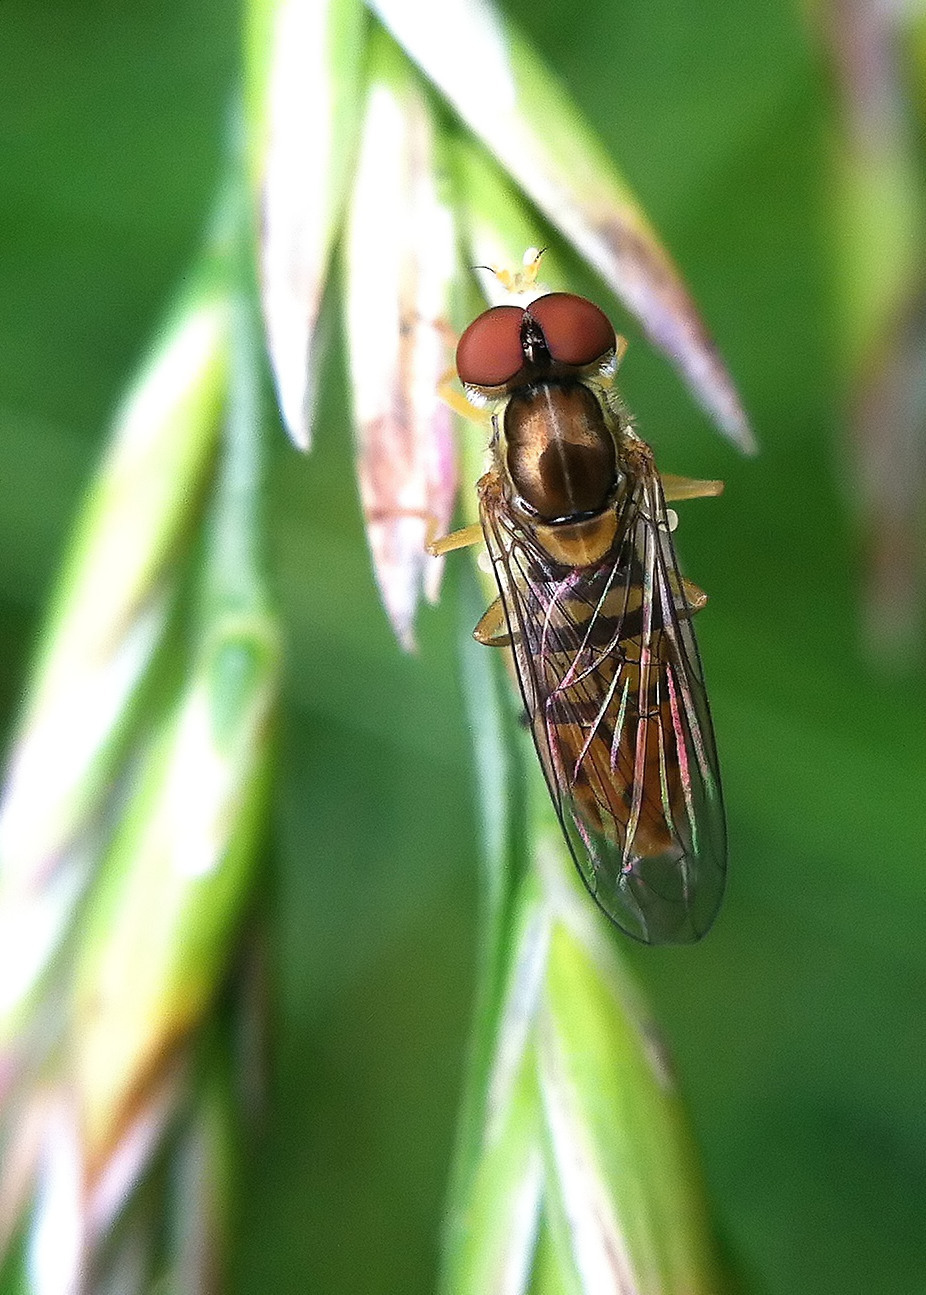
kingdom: Animalia
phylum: Arthropoda
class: Insecta
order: Diptera
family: Syrphidae
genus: Toxomerus
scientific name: Toxomerus marginatus
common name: Syrphid fly
